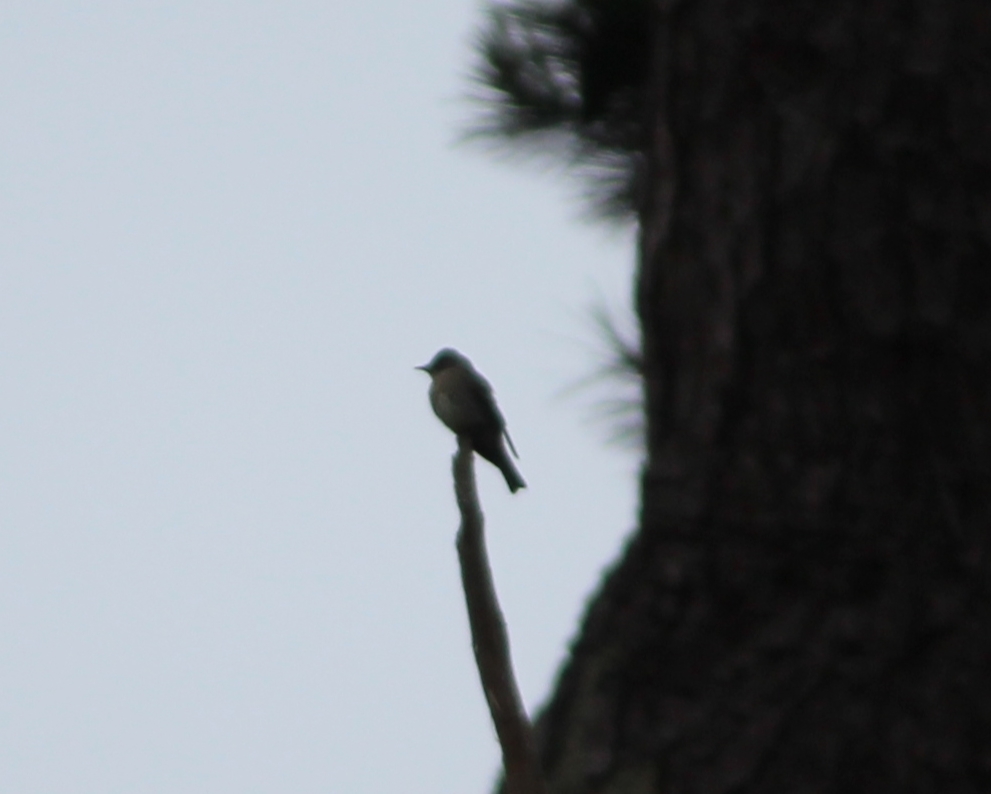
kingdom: Animalia
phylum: Chordata
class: Aves
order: Passeriformes
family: Tyrannidae
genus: Contopus
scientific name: Contopus sordidulus
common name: Western wood-pewee
